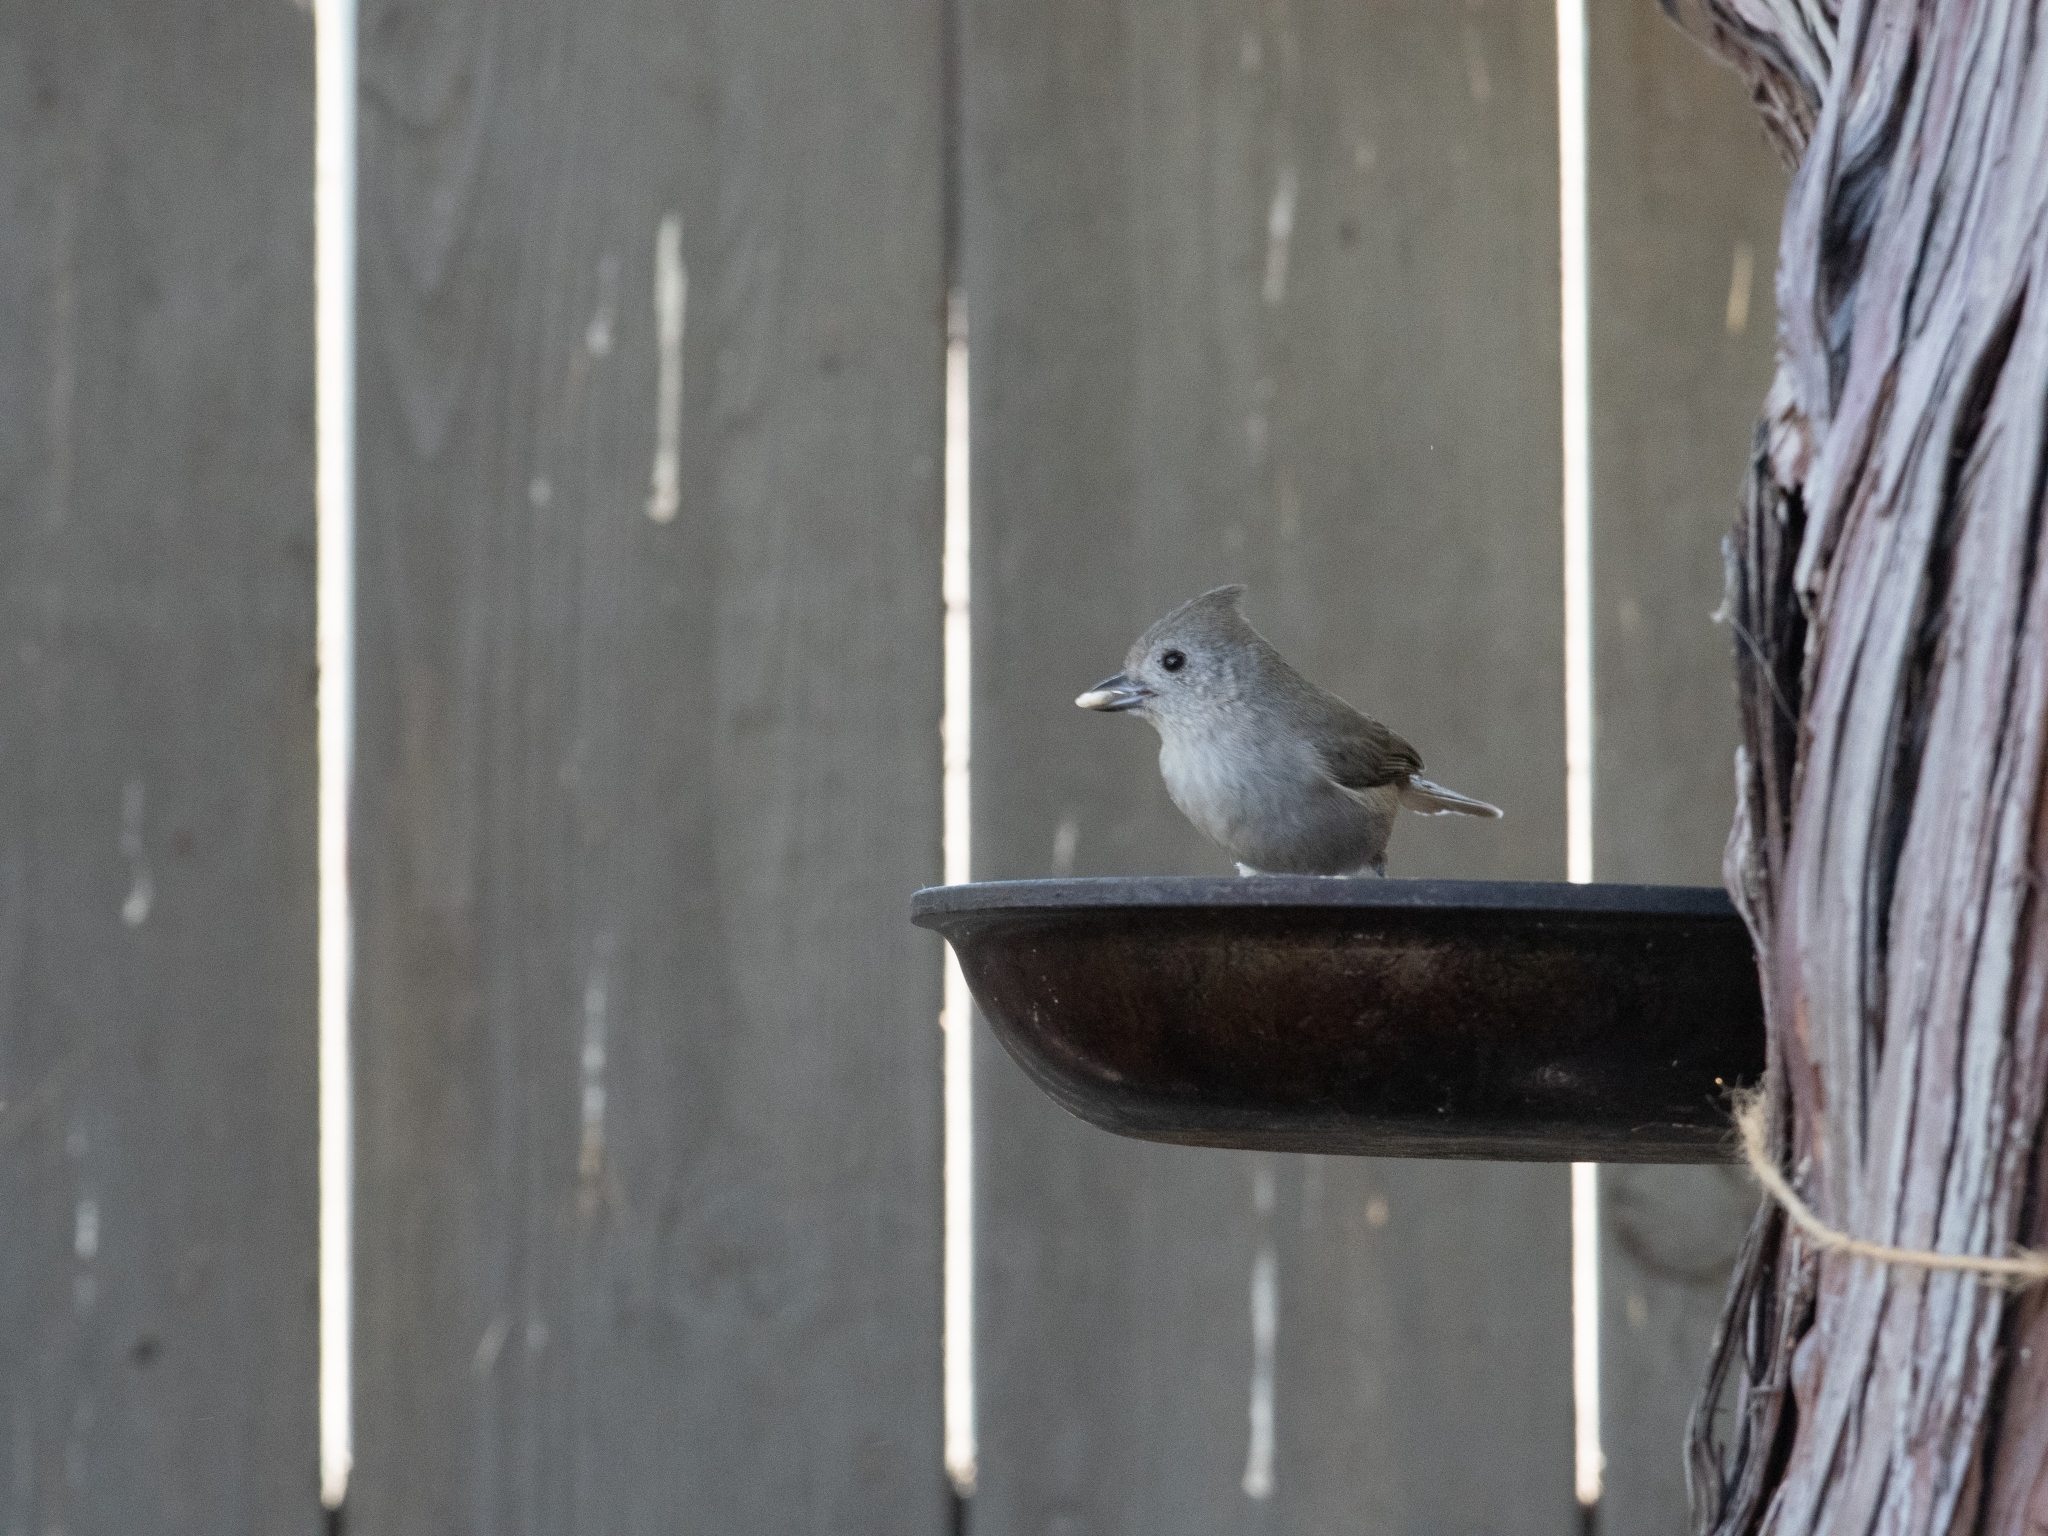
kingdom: Animalia
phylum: Chordata
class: Aves
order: Passeriformes
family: Paridae
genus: Baeolophus
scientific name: Baeolophus inornatus
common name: Oak titmouse
